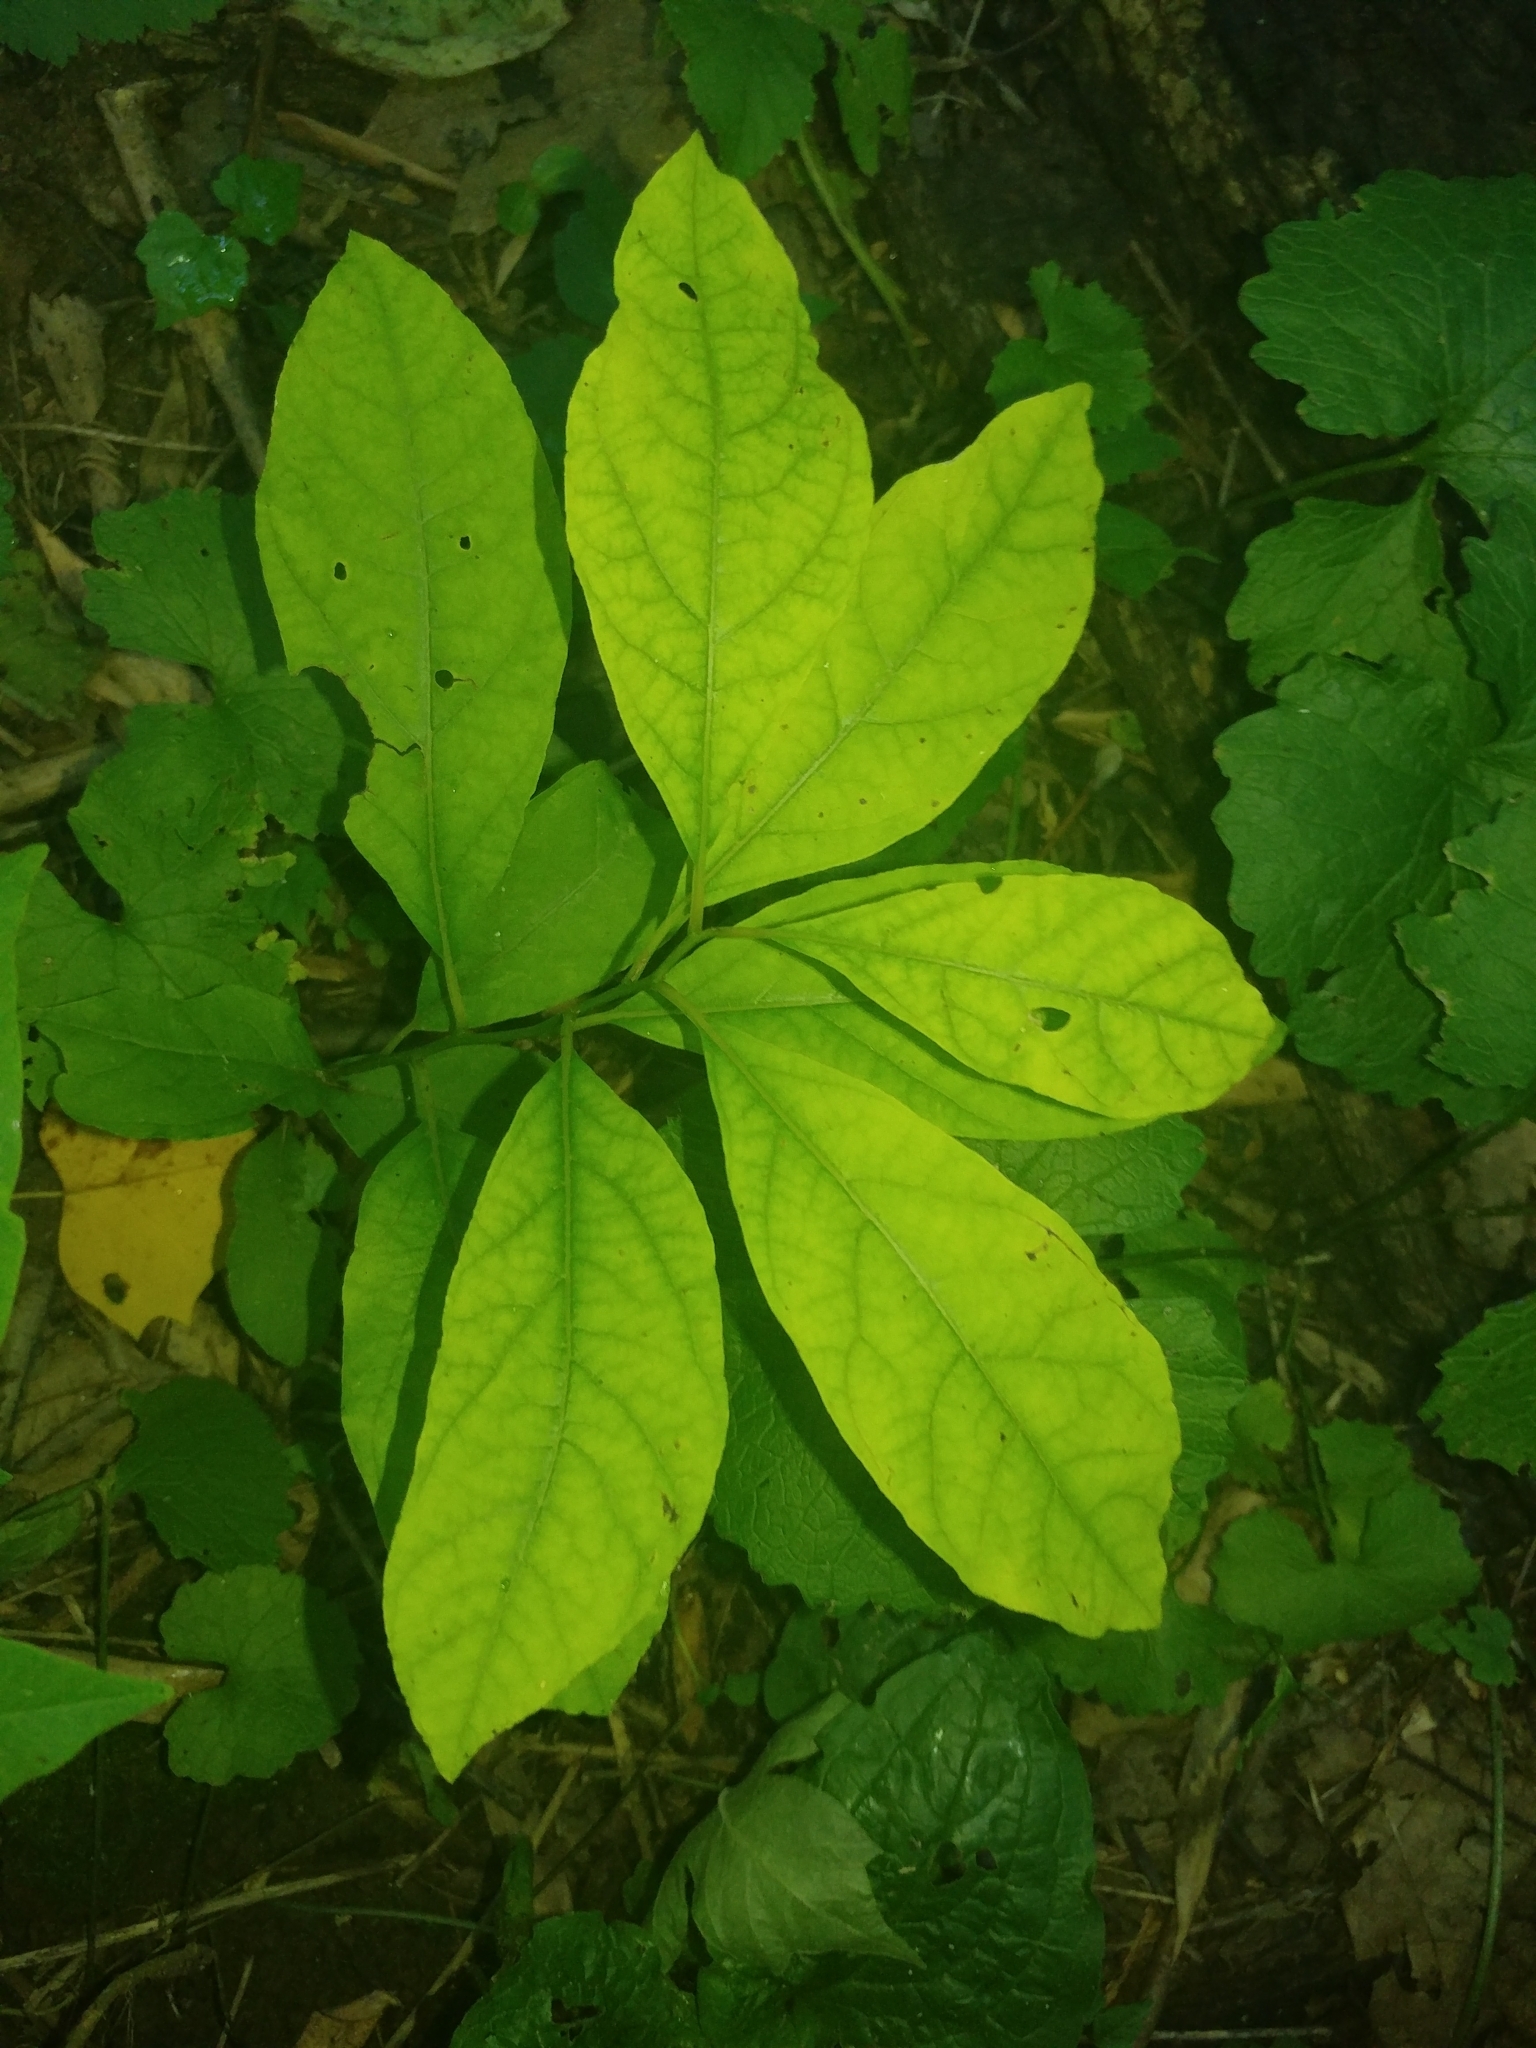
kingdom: Plantae
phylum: Tracheophyta
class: Magnoliopsida
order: Laurales
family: Lauraceae
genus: Lindera
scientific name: Lindera benzoin
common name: Spicebush
